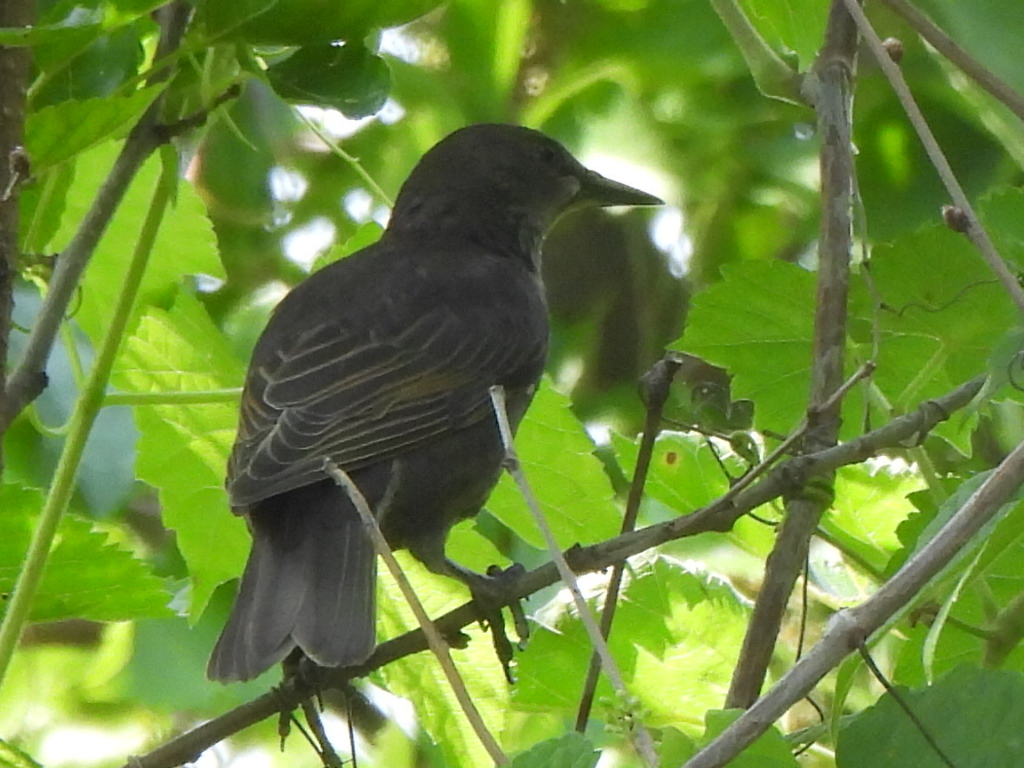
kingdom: Animalia
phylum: Chordata
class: Aves
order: Passeriformes
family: Sturnidae
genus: Sturnus
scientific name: Sturnus vulgaris
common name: Common starling
